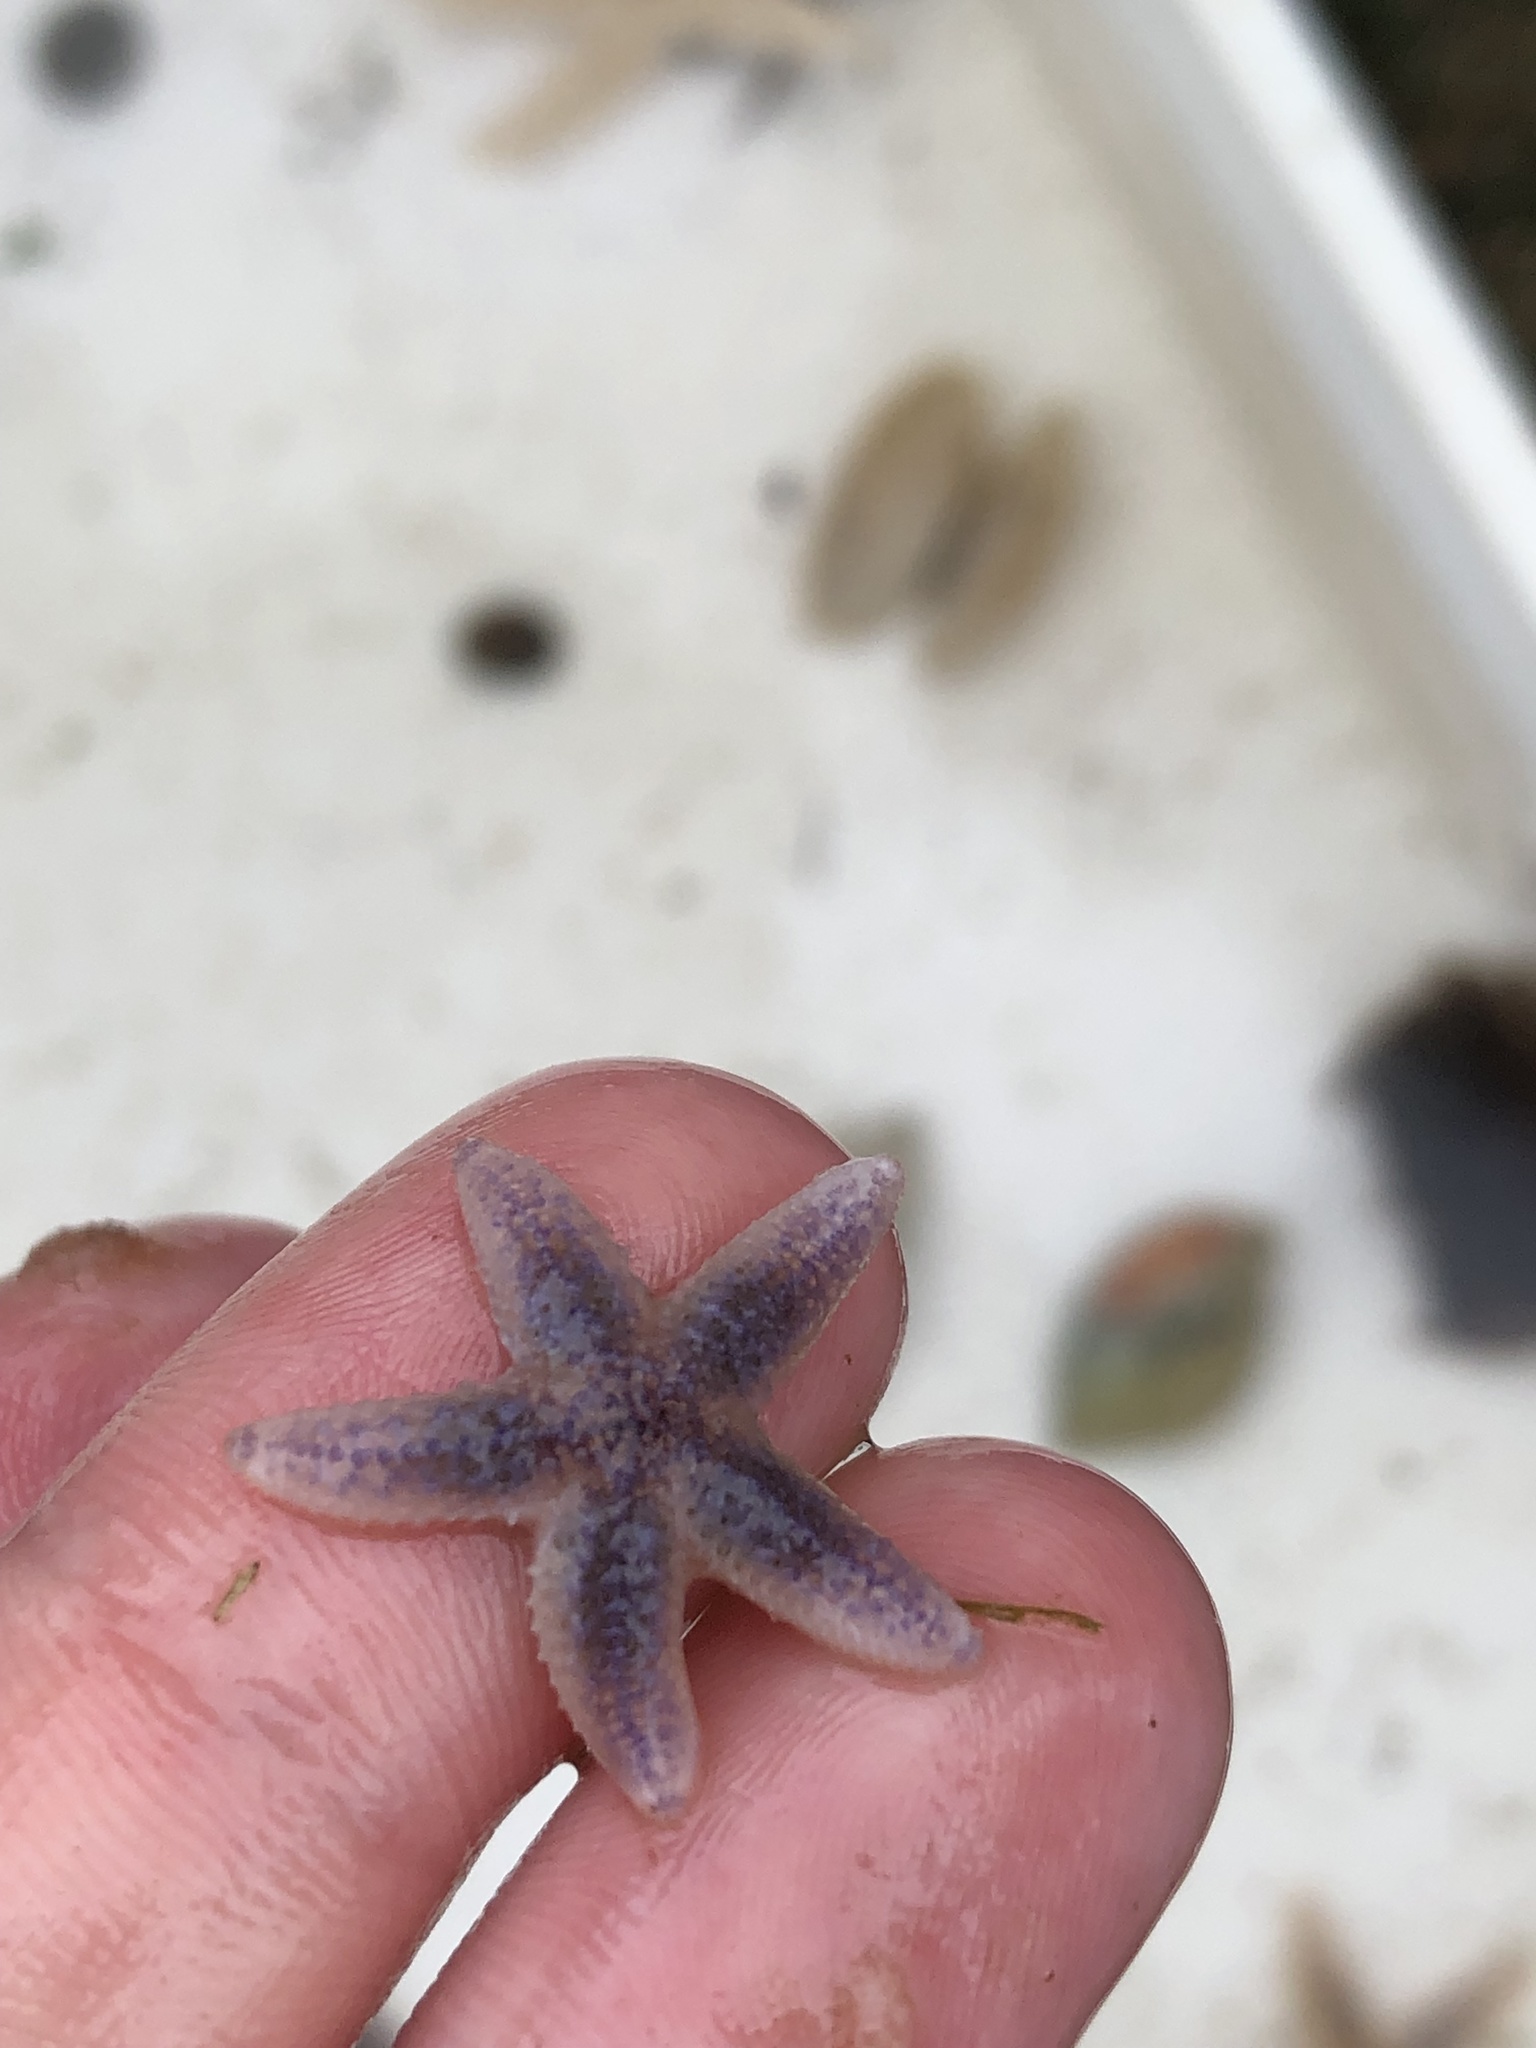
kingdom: Animalia
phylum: Echinodermata
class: Asteroidea
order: Forcipulatida
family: Asteriidae
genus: Asterias
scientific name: Asterias rubens
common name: Common starfish
